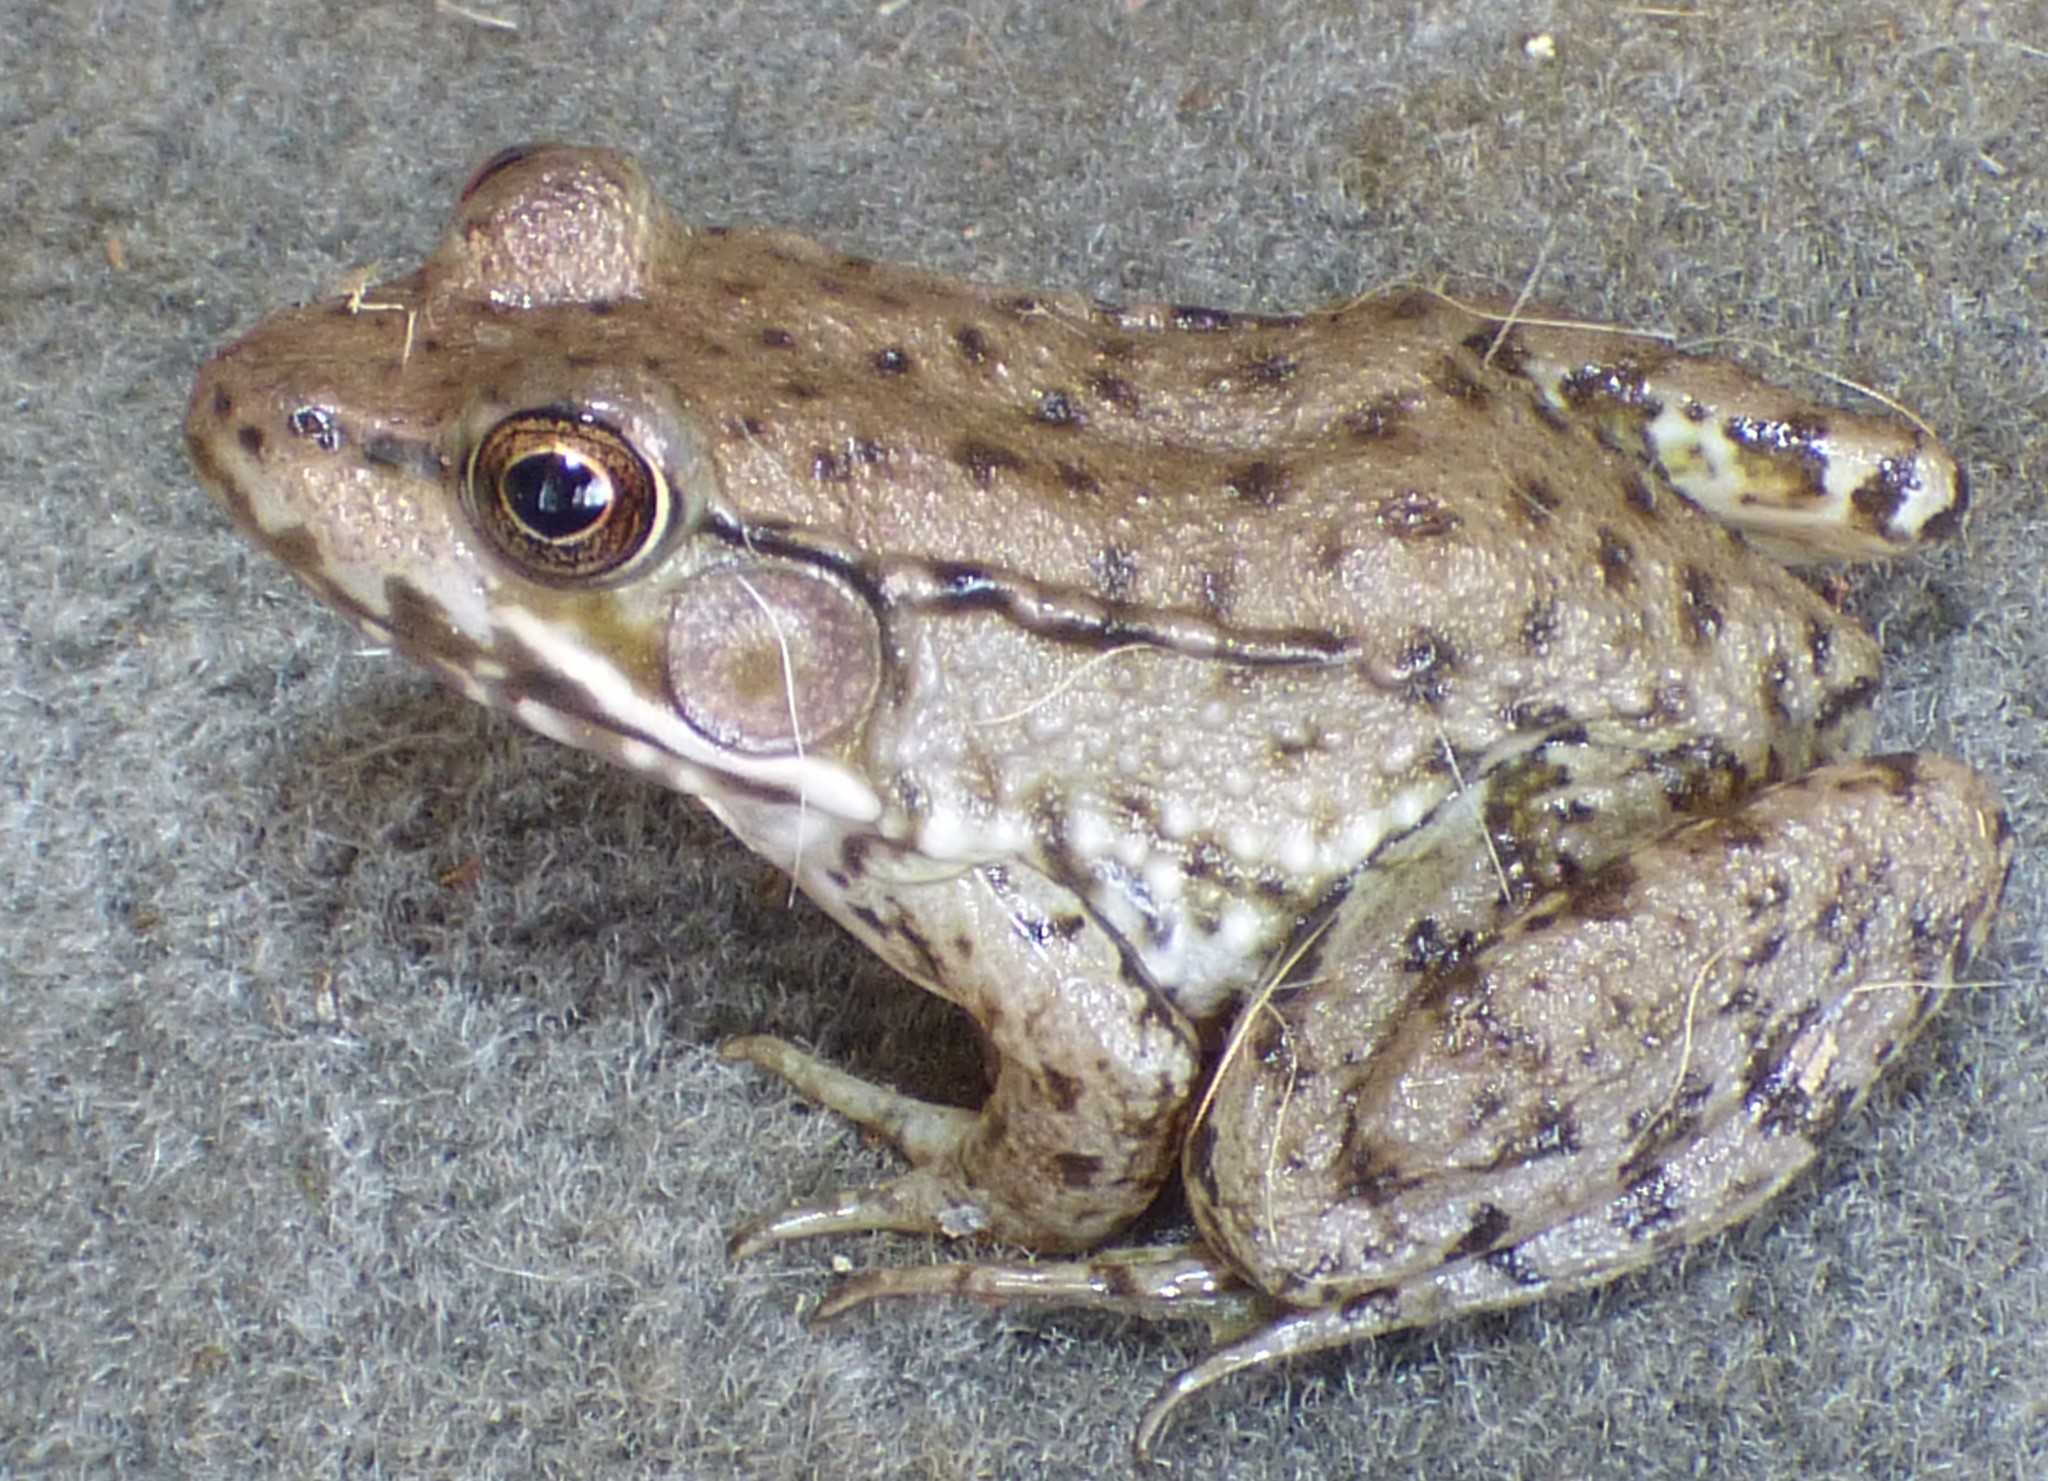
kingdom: Animalia
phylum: Chordata
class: Amphibia
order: Anura
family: Ranidae
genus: Lithobates
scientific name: Lithobates clamitans
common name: Green frog
